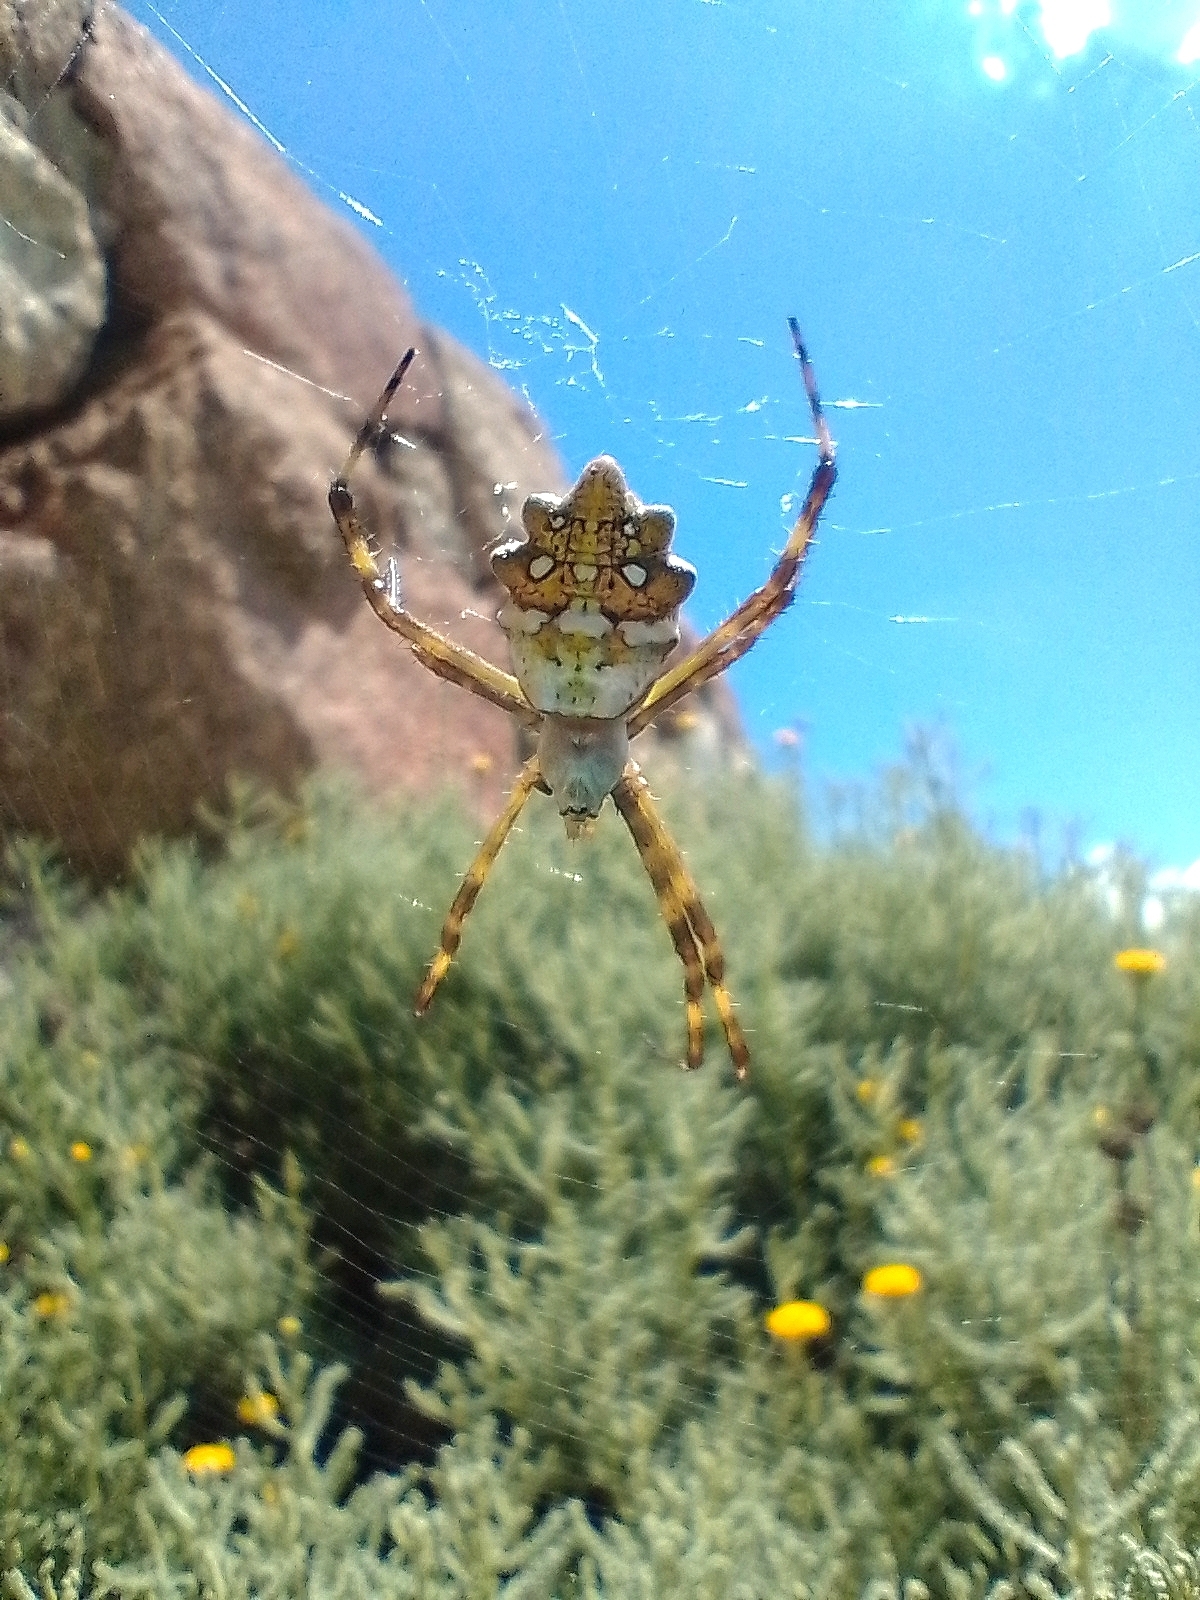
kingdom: Animalia
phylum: Arthropoda
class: Arachnida
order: Araneae
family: Araneidae
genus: Argiope
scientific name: Argiope argentata
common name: Orb weavers
